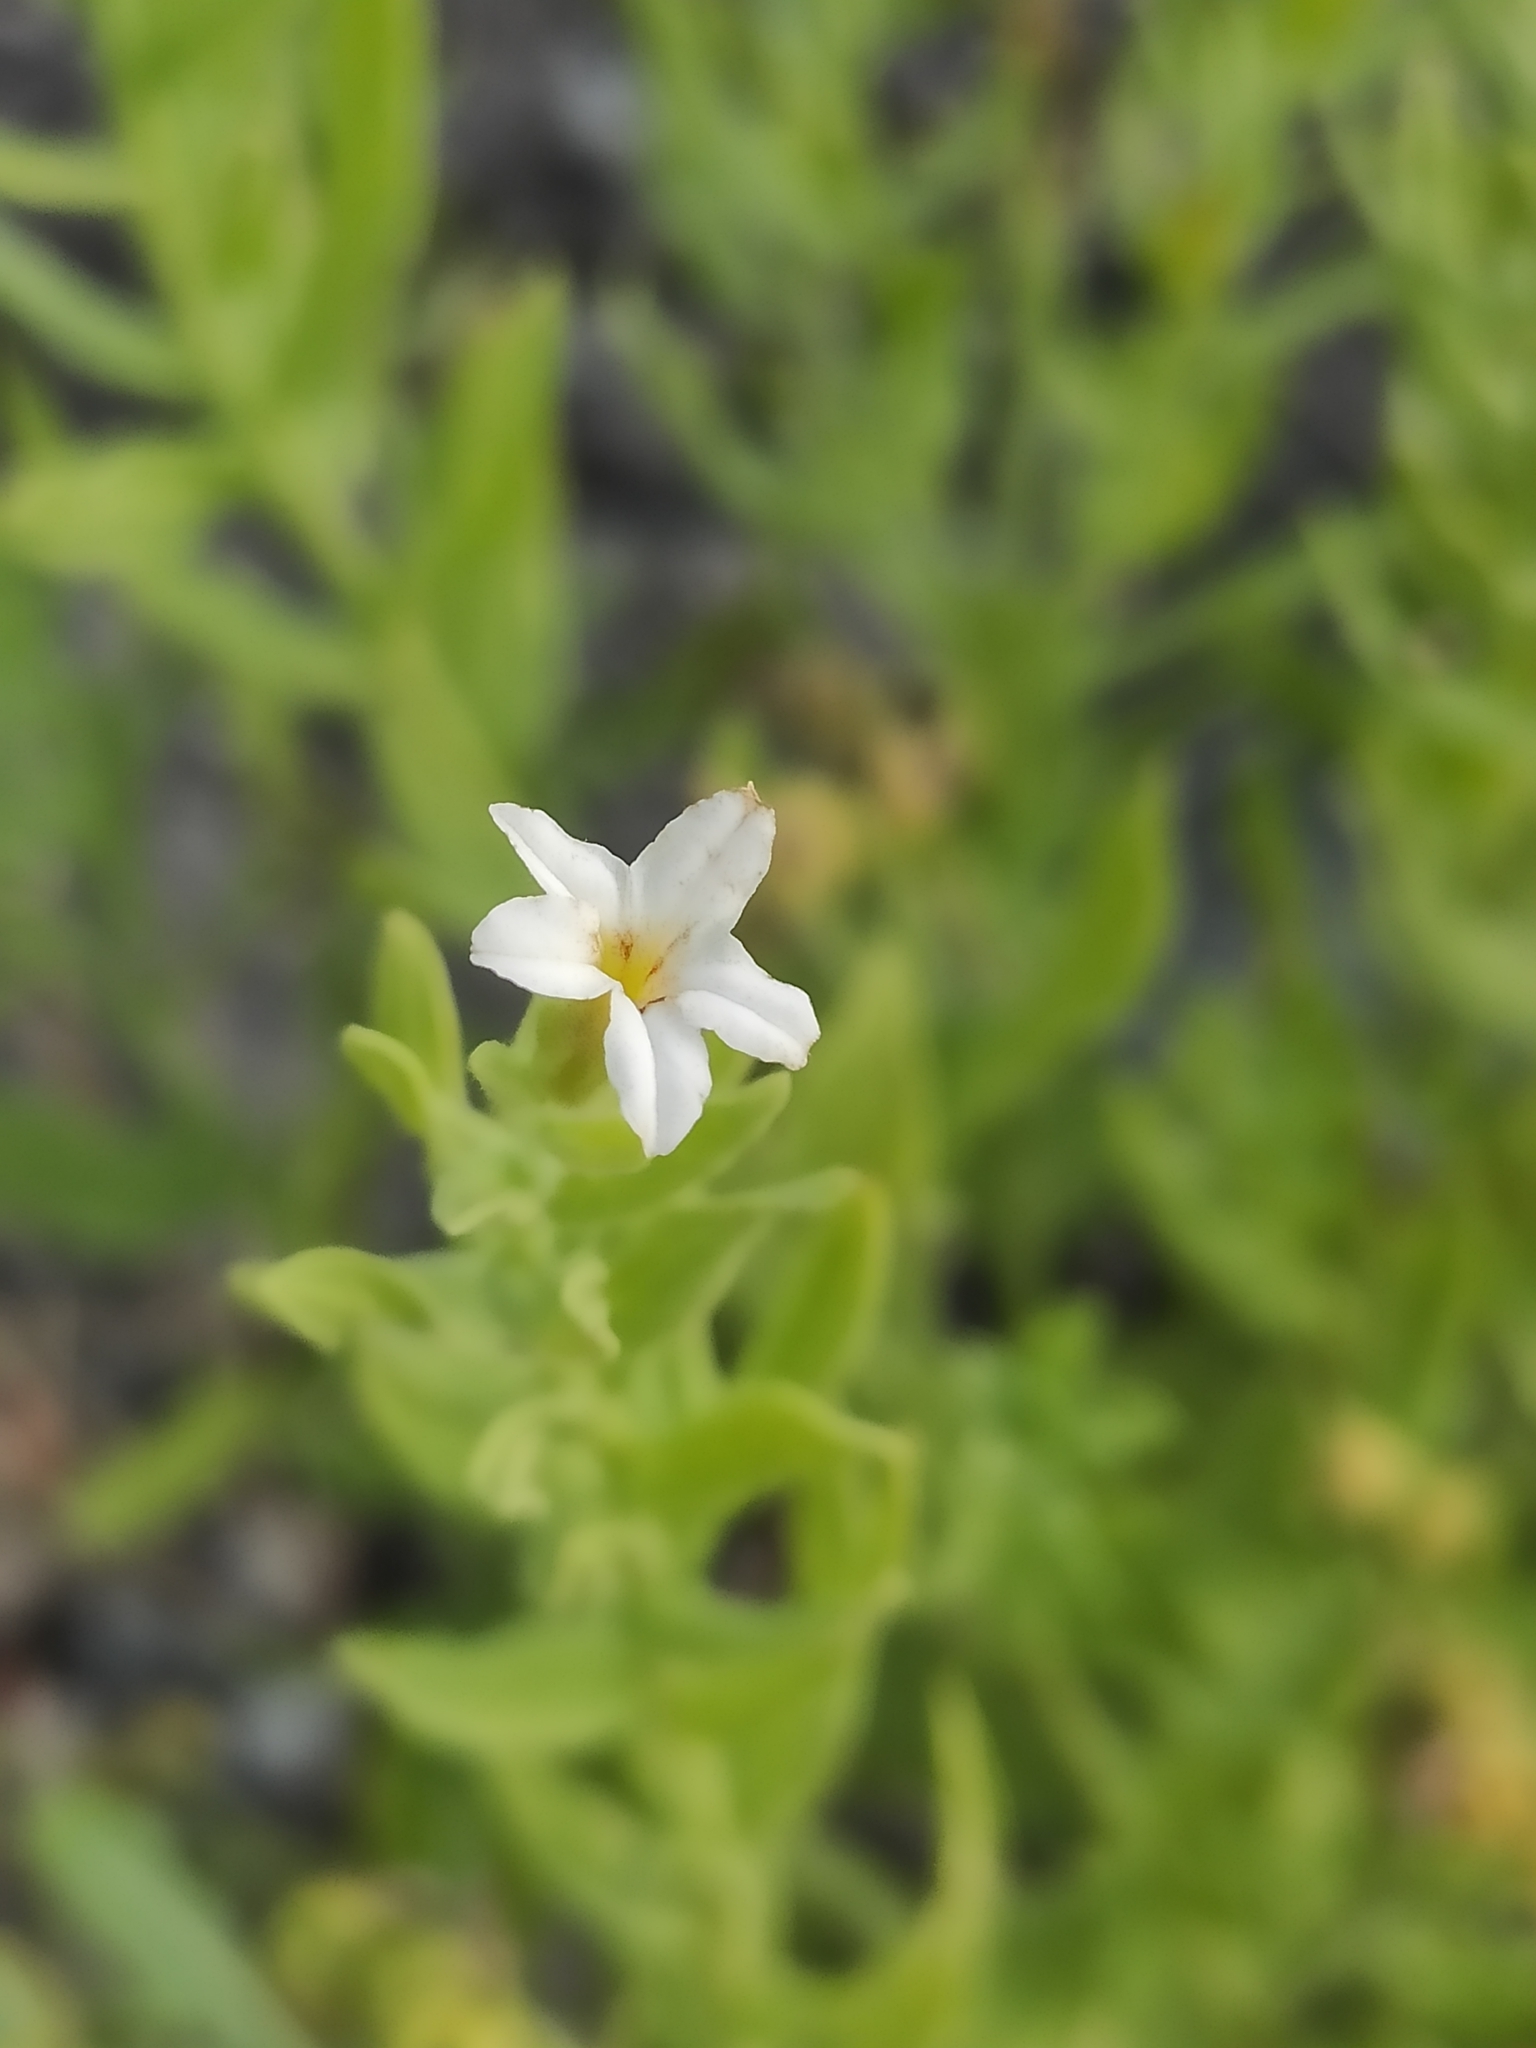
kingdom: Plantae
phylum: Tracheophyta
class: Magnoliopsida
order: Boraginales
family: Heliotropiaceae
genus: Tournefortia
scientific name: Tournefortia sibirica
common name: Siberian sea rosemary
